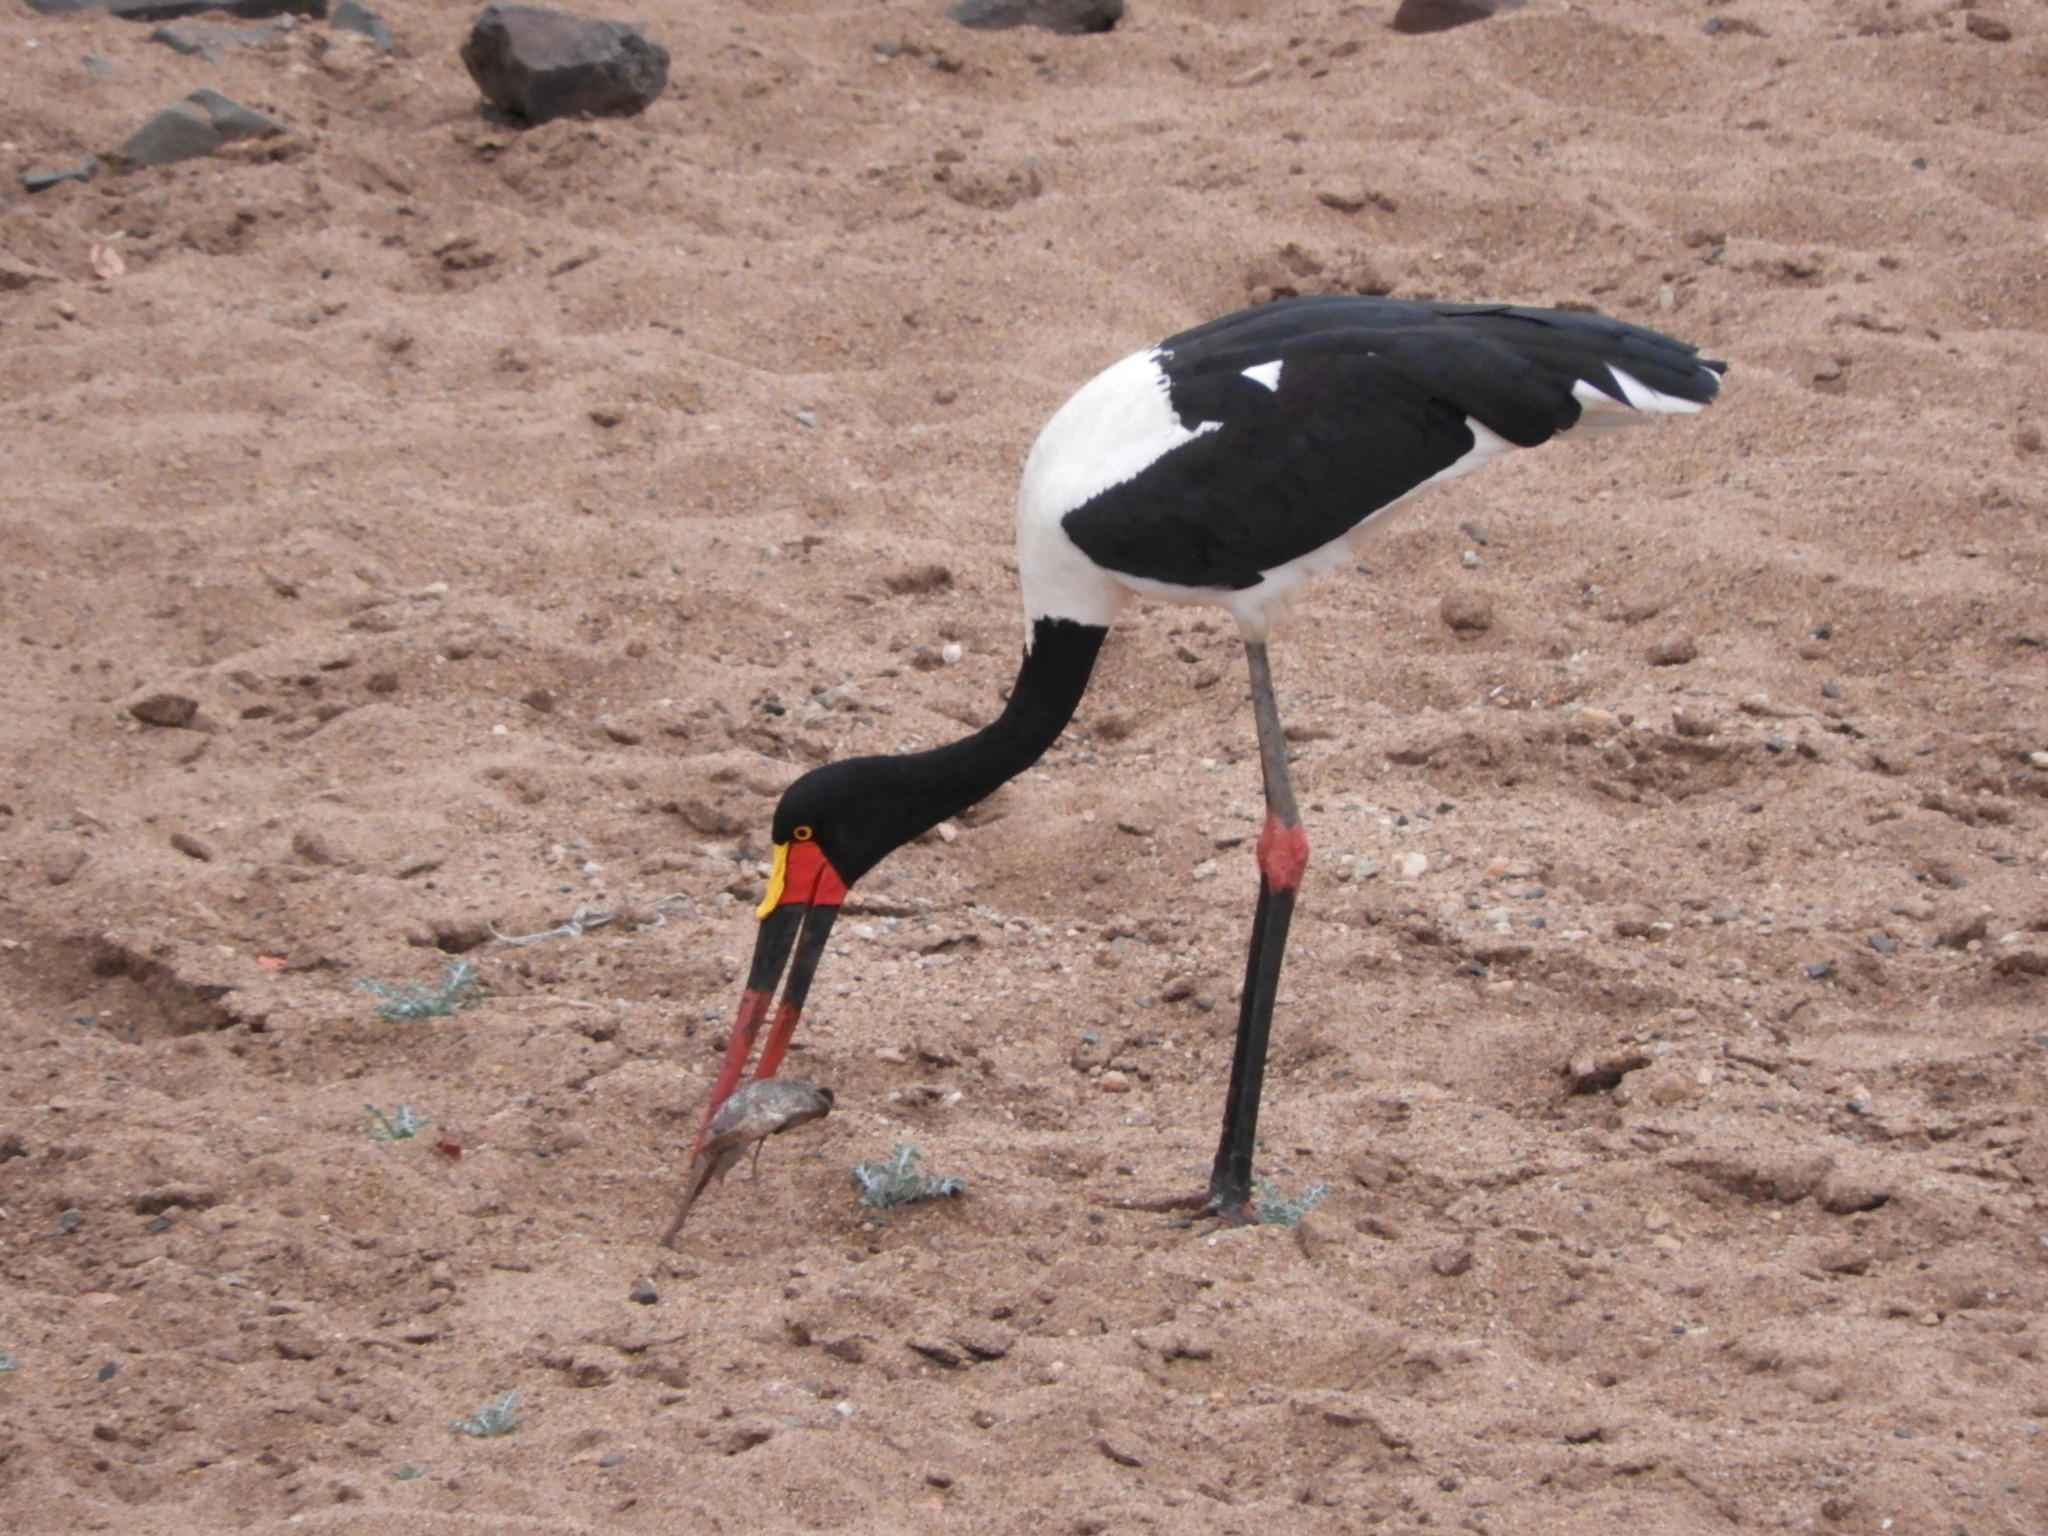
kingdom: Animalia
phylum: Chordata
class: Aves
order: Ciconiiformes
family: Ciconiidae
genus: Ephippiorhynchus
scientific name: Ephippiorhynchus senegalensis
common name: Saddle-billed stork
